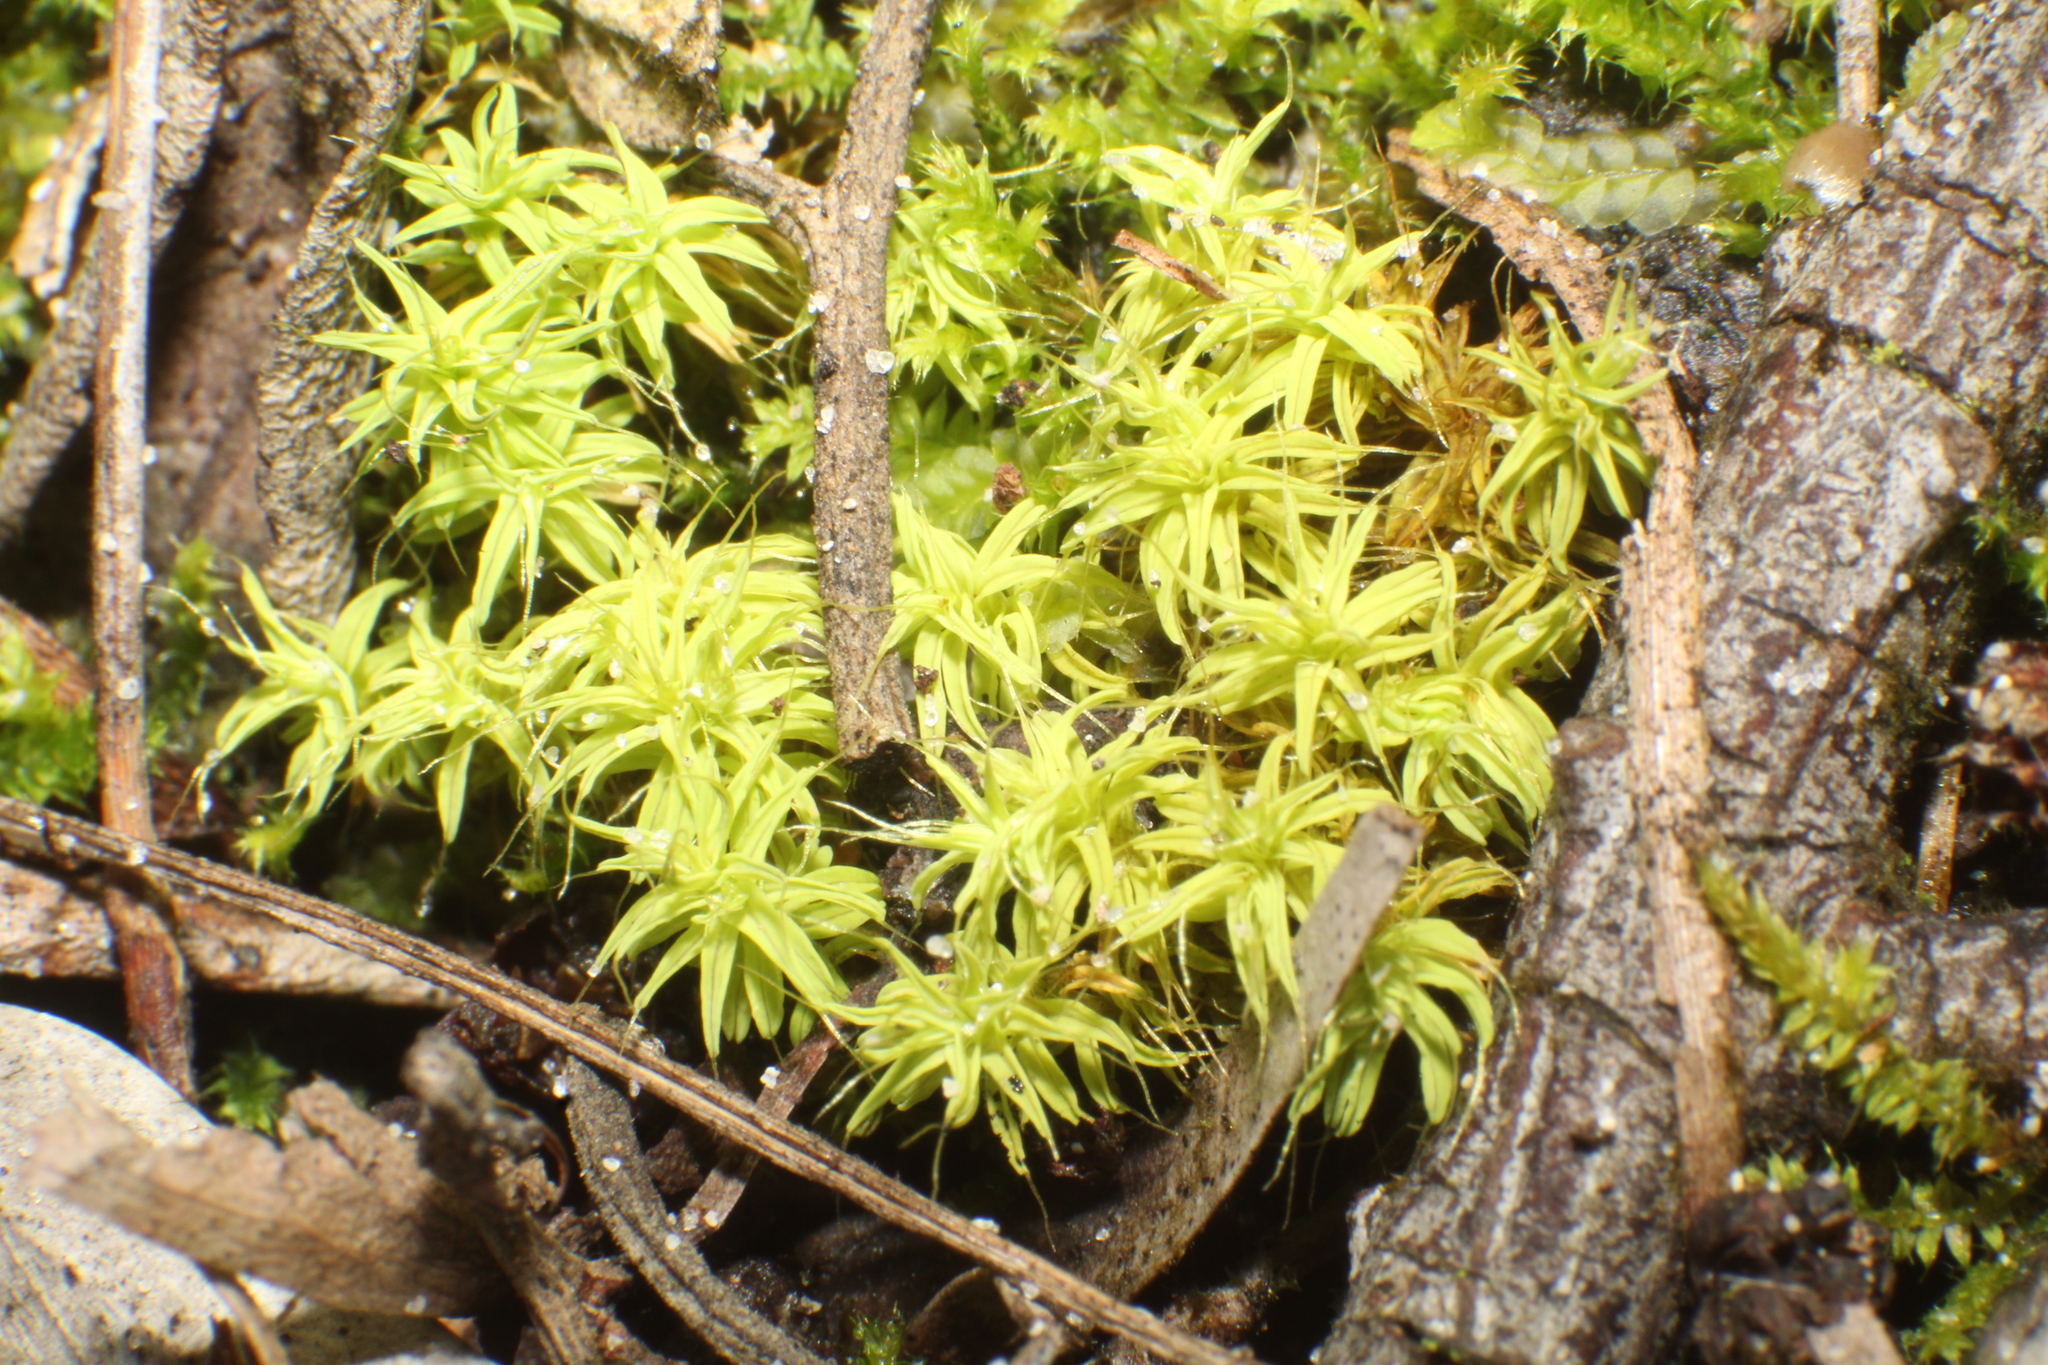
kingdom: Plantae
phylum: Bryophyta
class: Bryopsida
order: Pottiales
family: Pottiaceae
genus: Pseudocrossidium
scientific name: Pseudocrossidium crinitum
